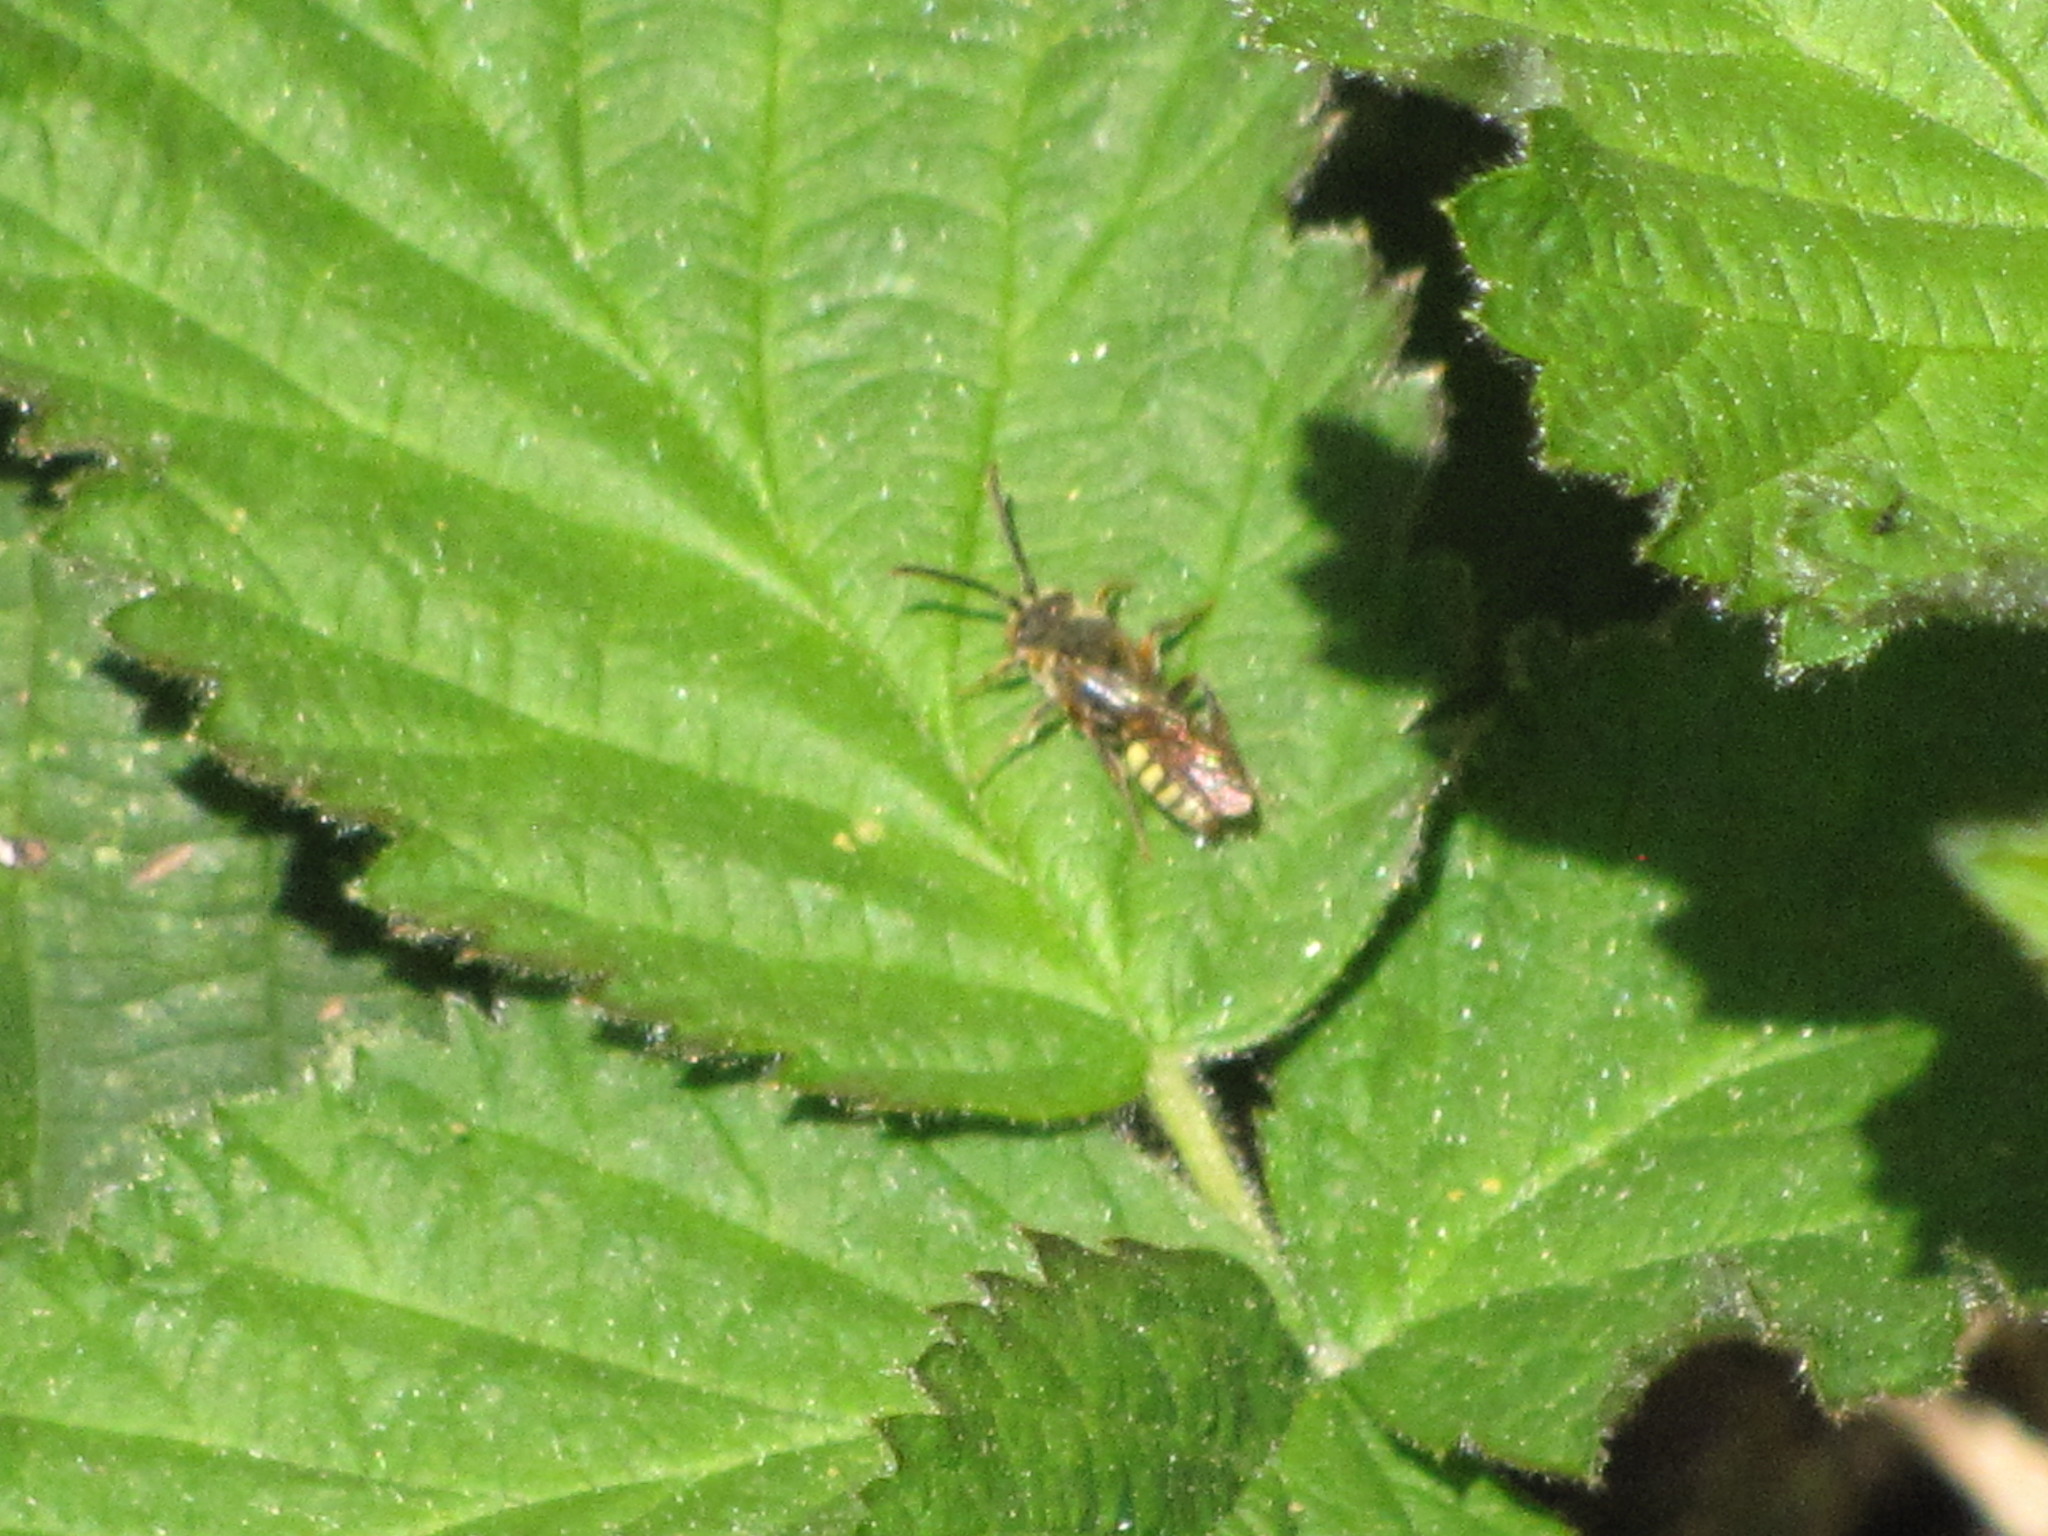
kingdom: Animalia
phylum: Arthropoda
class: Insecta
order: Hymenoptera
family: Apidae
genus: Nomada
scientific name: Nomada
